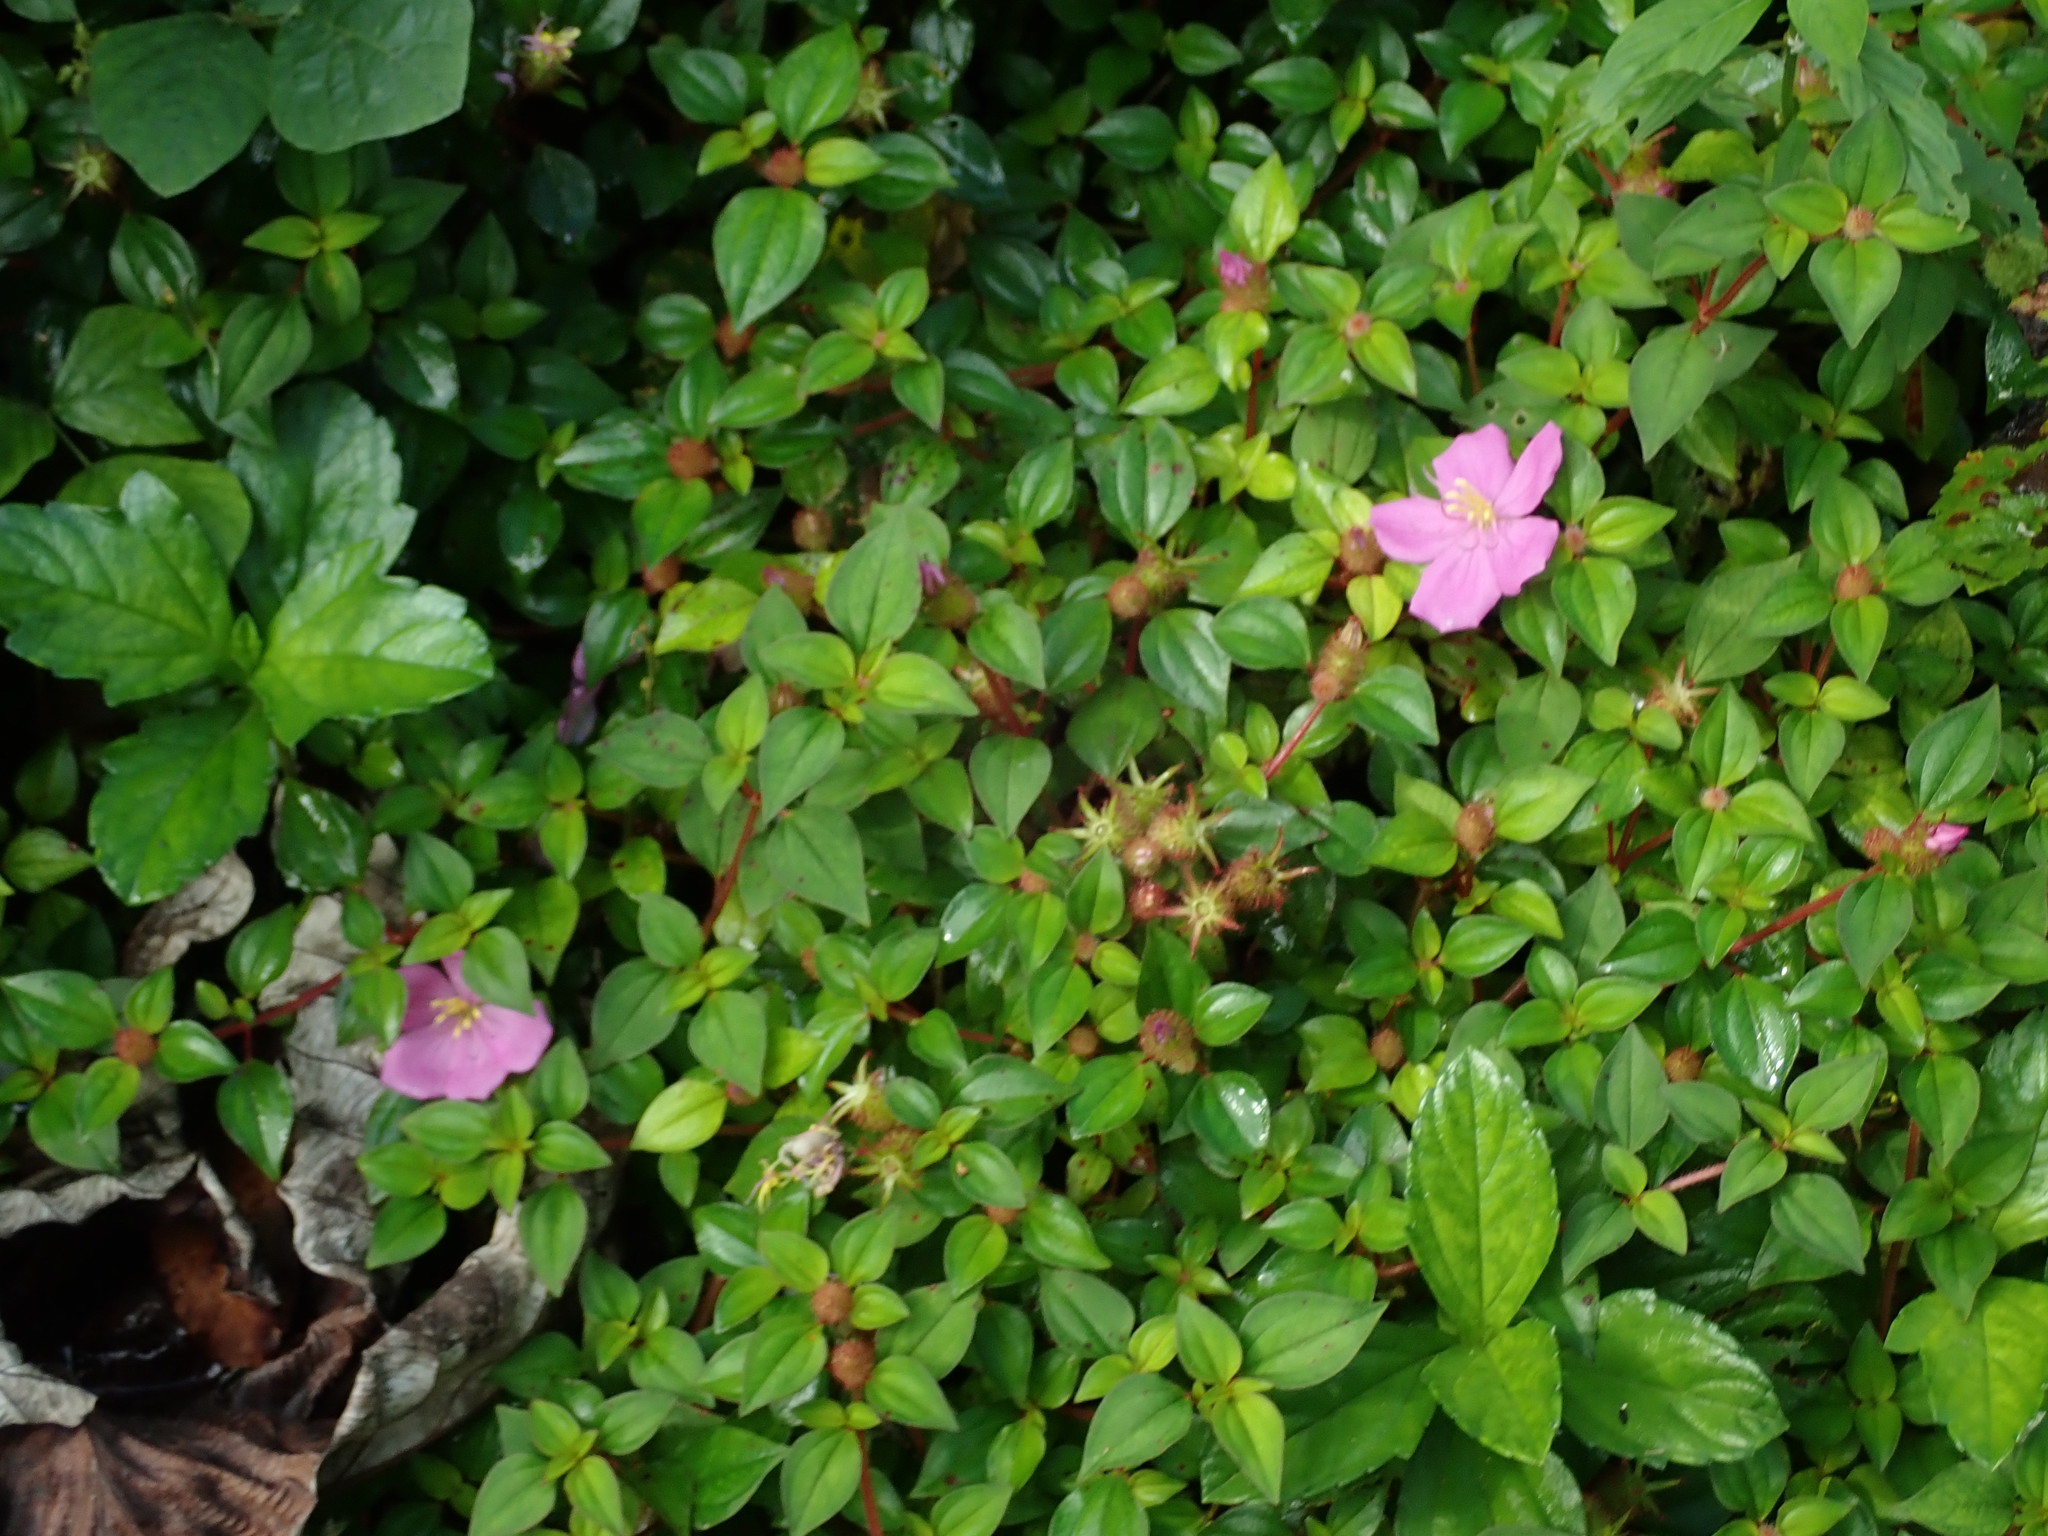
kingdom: Plantae
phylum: Tracheophyta
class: Magnoliopsida
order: Myrtales
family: Melastomataceae
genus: Heterotis
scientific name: Heterotis rotundifolia
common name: Pinklady
